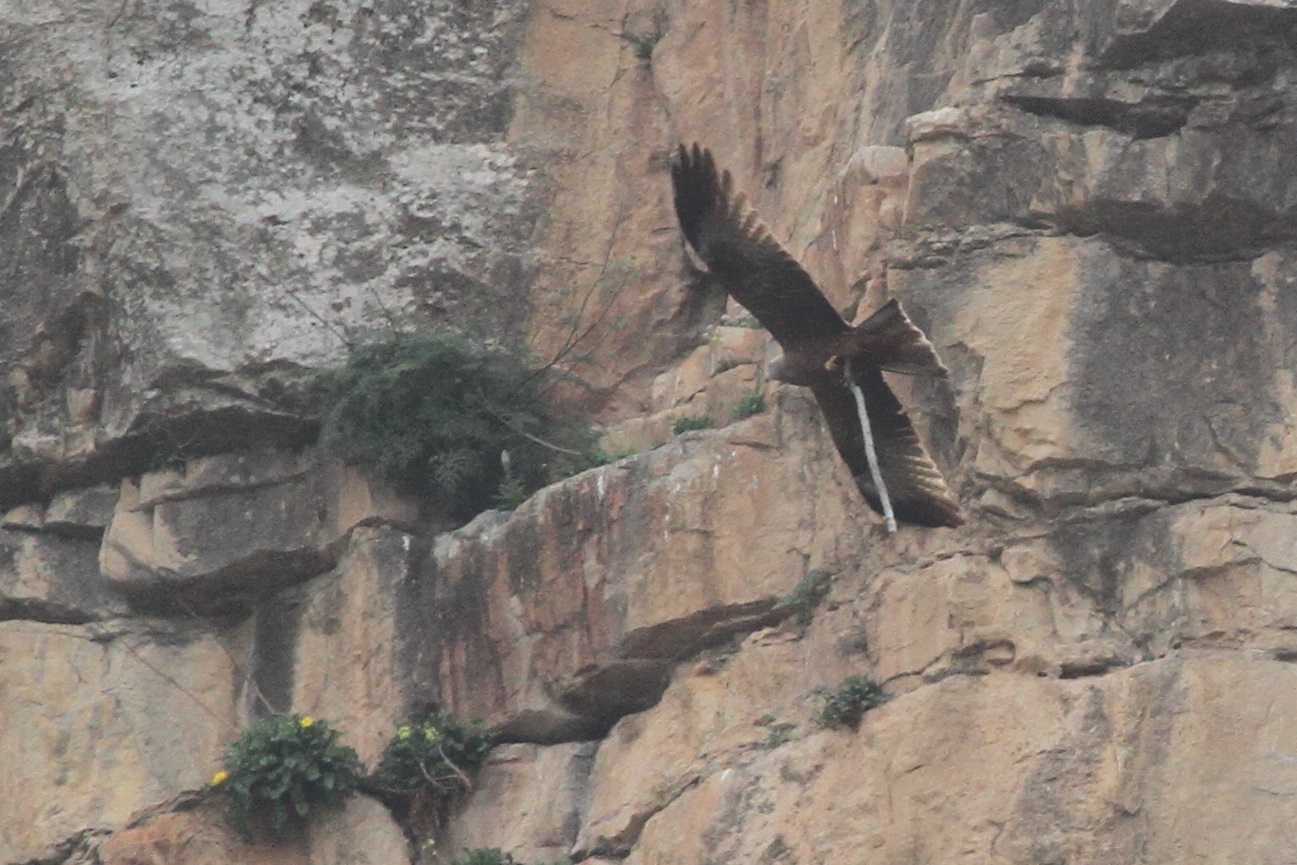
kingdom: Animalia
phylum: Chordata
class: Aves
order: Accipitriformes
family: Accipitridae
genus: Milvus
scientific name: Milvus migrans
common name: Black kite
